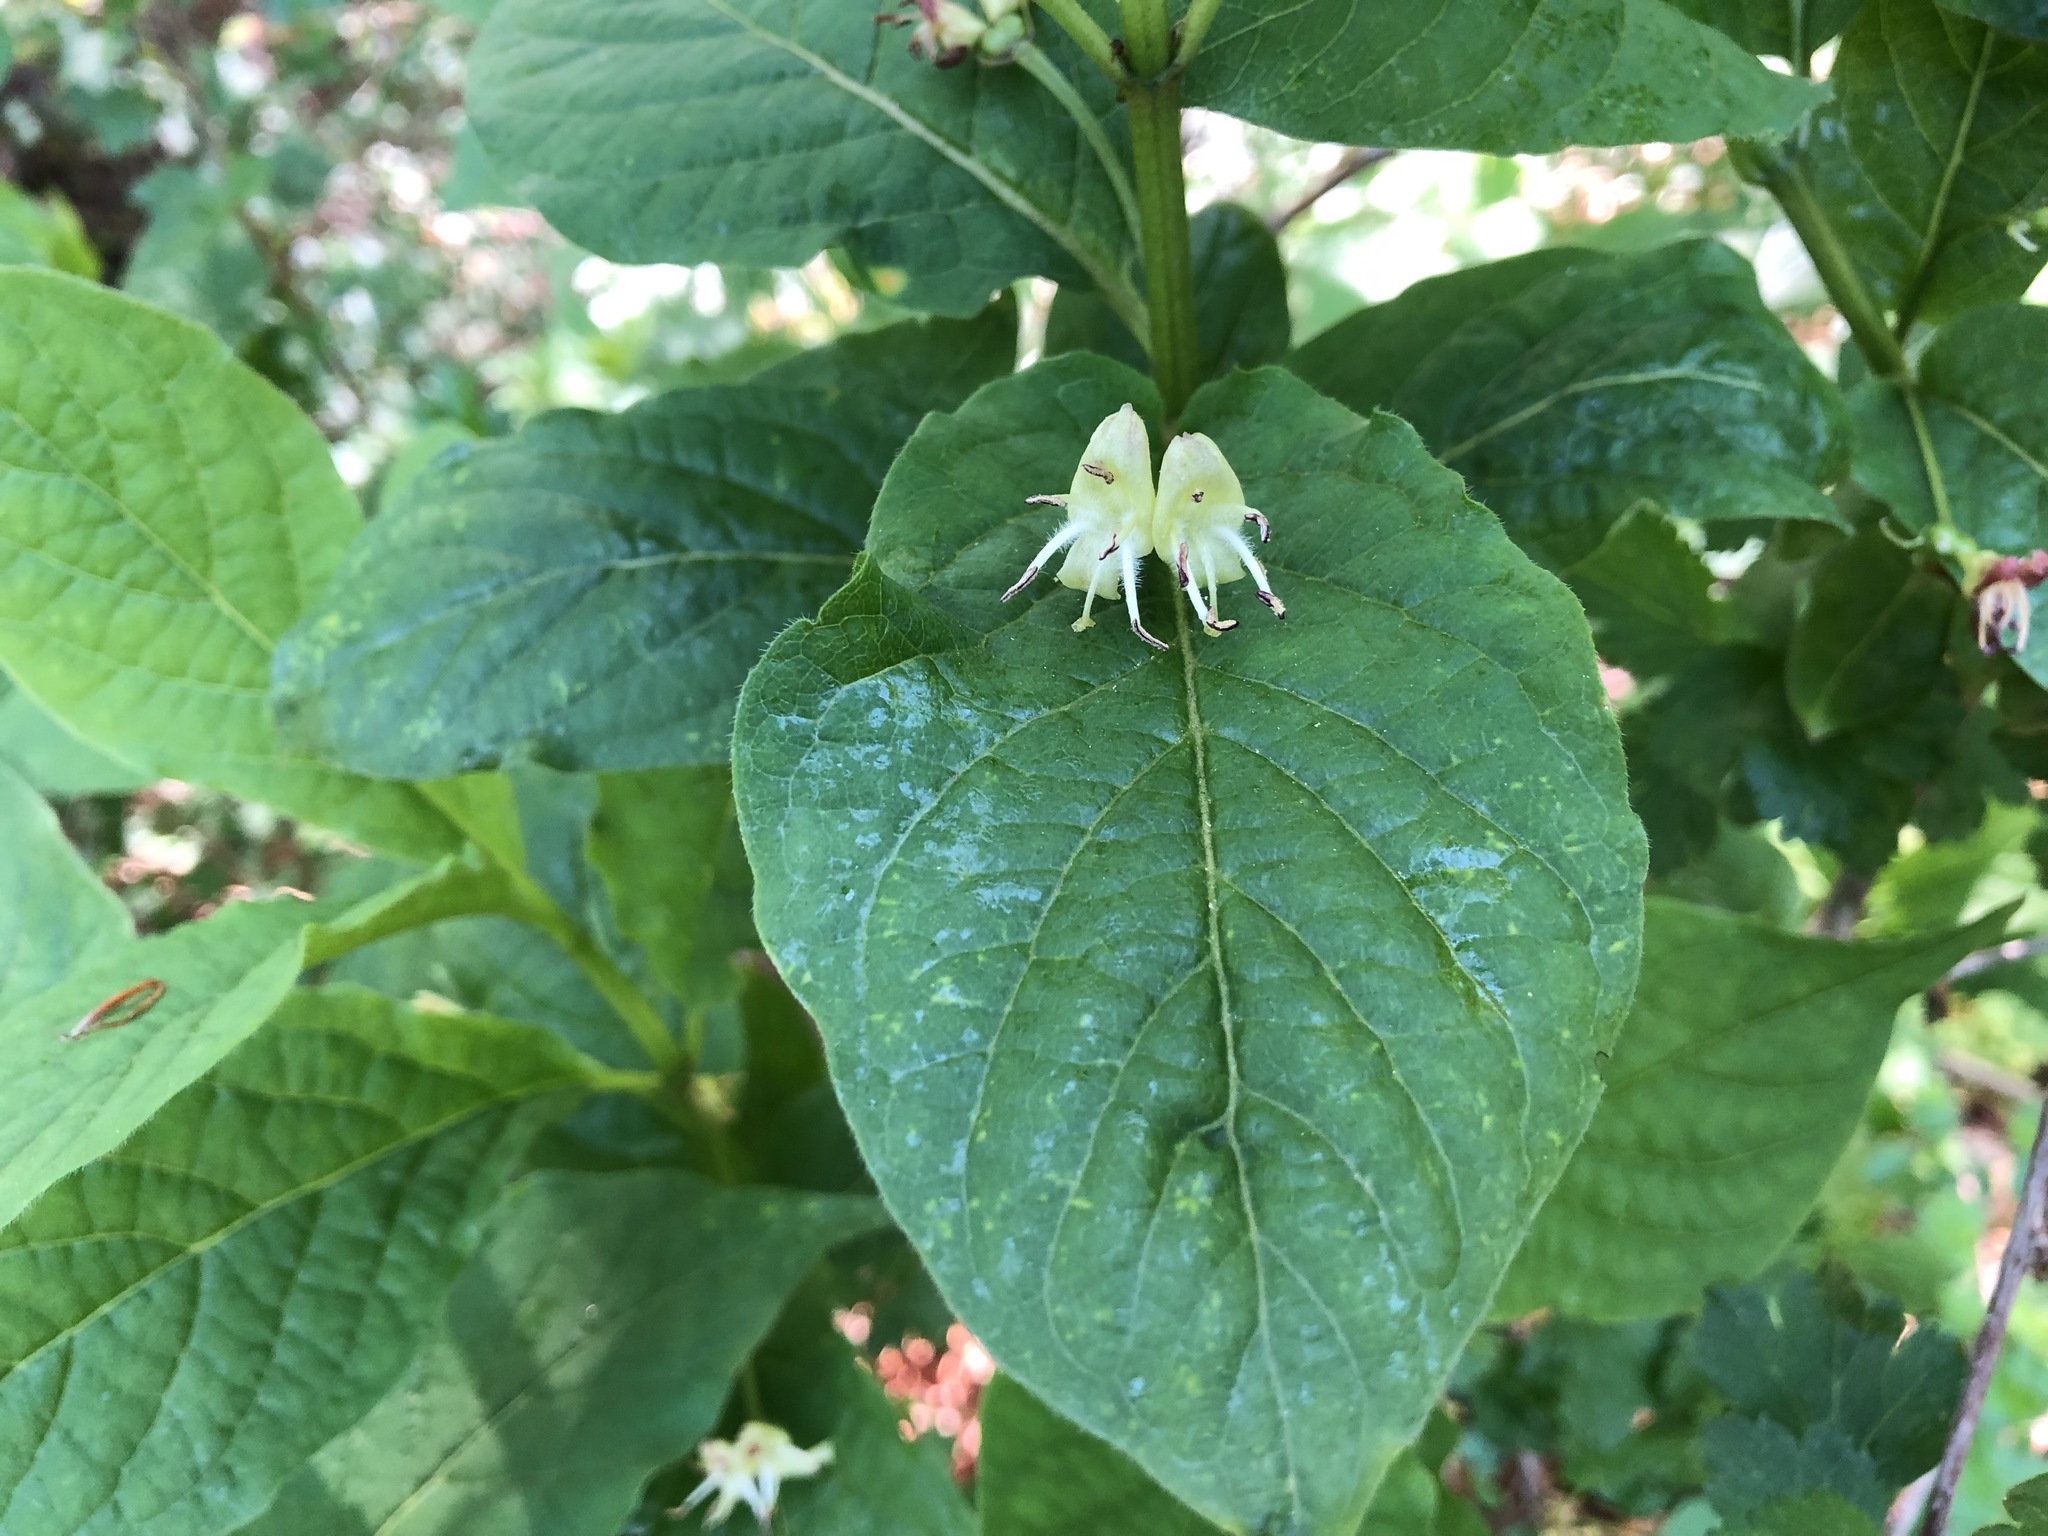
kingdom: Plantae
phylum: Tracheophyta
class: Magnoliopsida
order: Dipsacales
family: Caprifoliaceae
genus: Lonicera
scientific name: Lonicera alpigena
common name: Alpine honeysuckle
